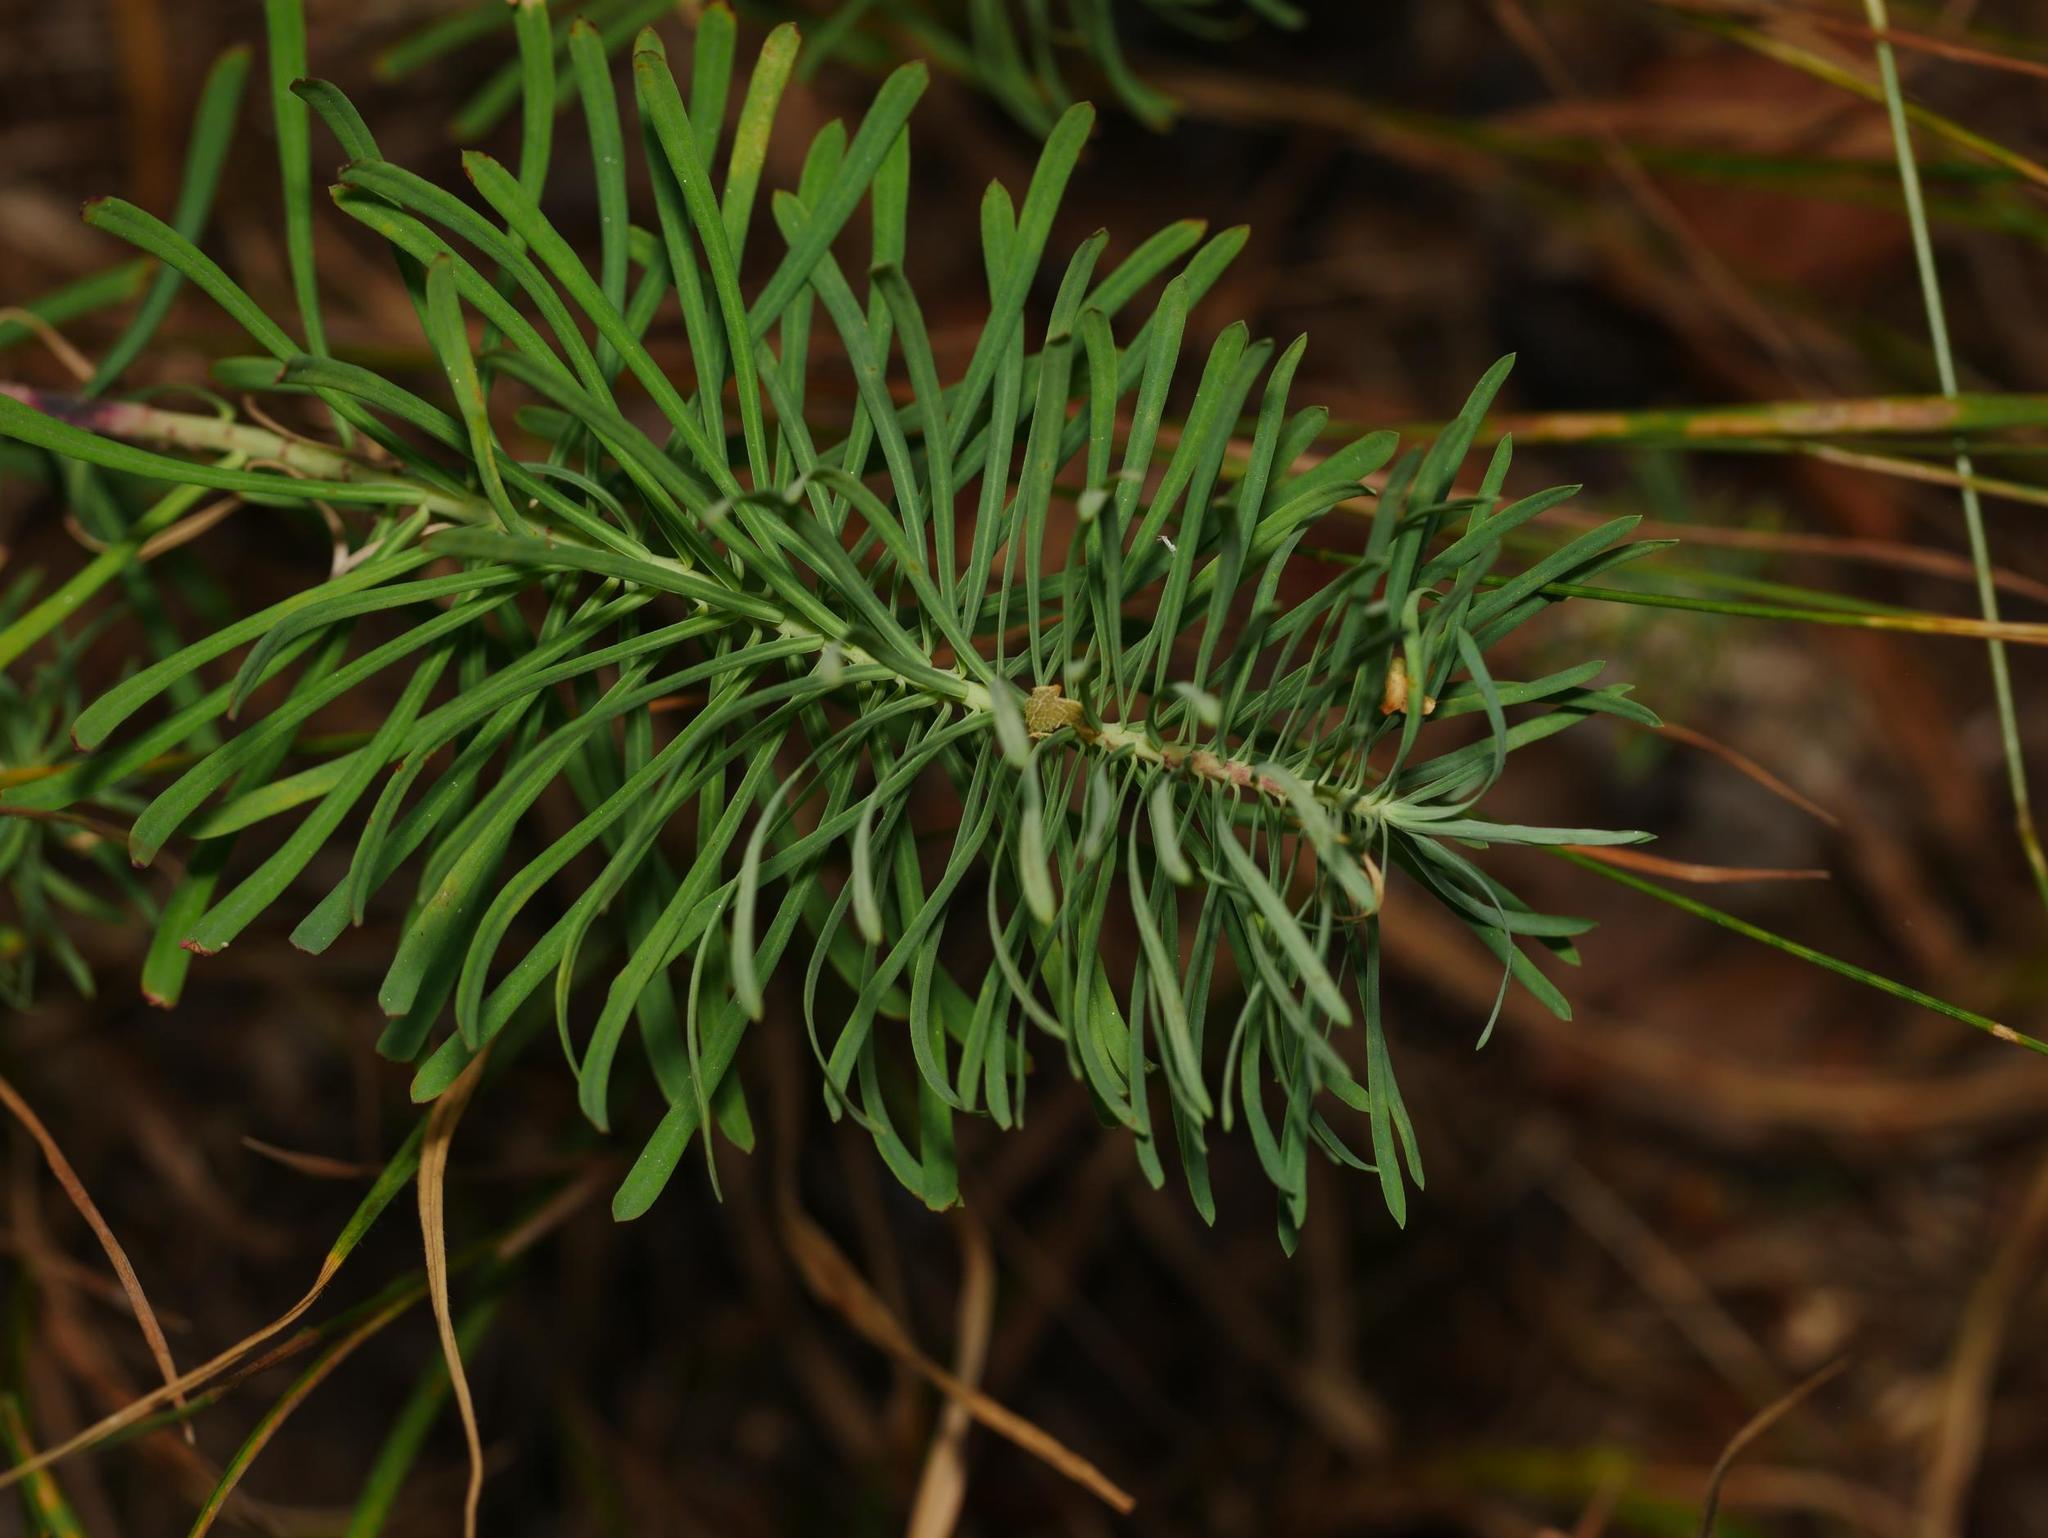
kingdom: Plantae
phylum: Tracheophyta
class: Magnoliopsida
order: Malpighiales
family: Euphorbiaceae
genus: Euphorbia
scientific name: Euphorbia cyparissias
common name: Cypress spurge
